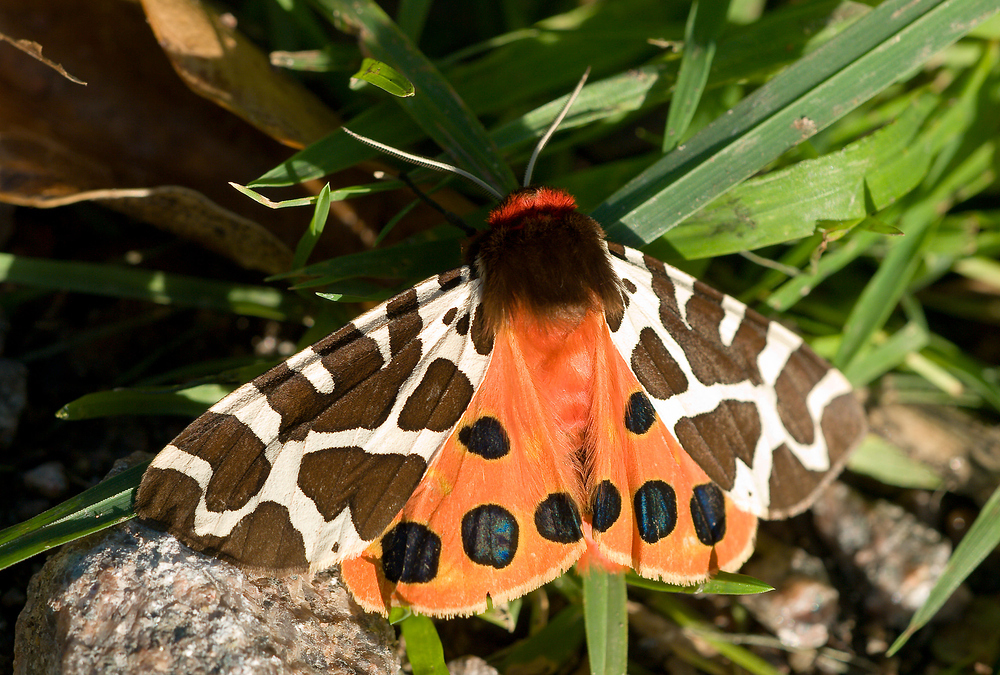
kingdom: Animalia
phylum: Arthropoda
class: Insecta
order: Lepidoptera
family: Erebidae
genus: Arctia
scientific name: Arctia caja
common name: Garden tiger
